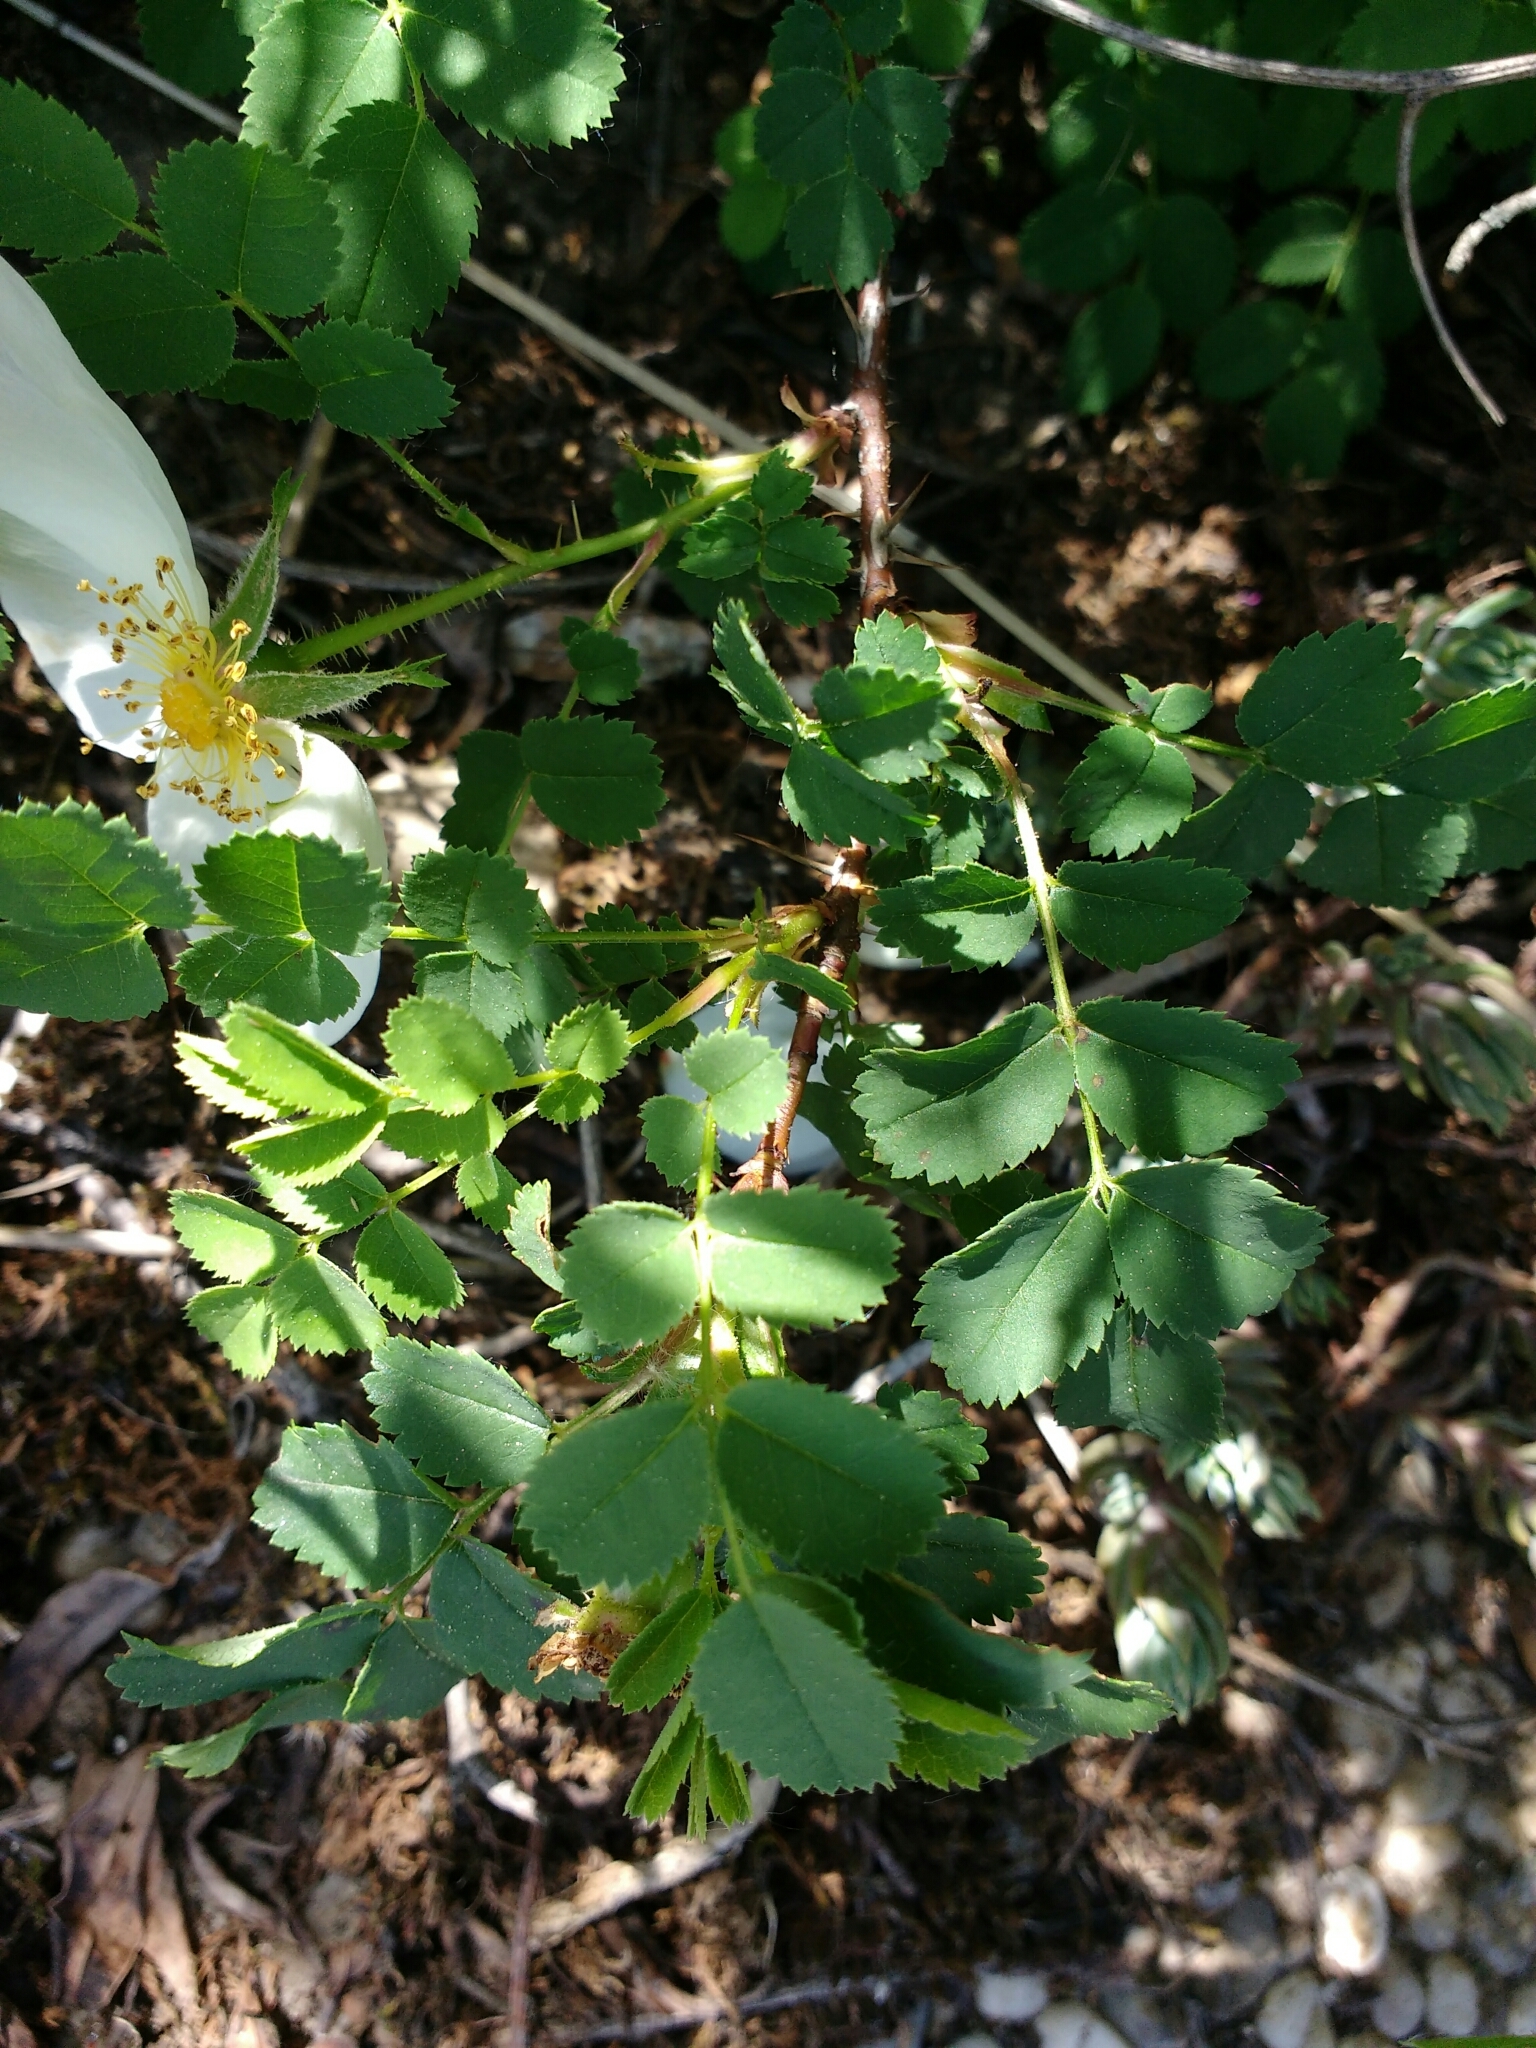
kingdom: Plantae
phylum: Tracheophyta
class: Magnoliopsida
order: Rosales
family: Rosaceae
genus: Rosa
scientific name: Rosa spinosissima
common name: Burnet rose
